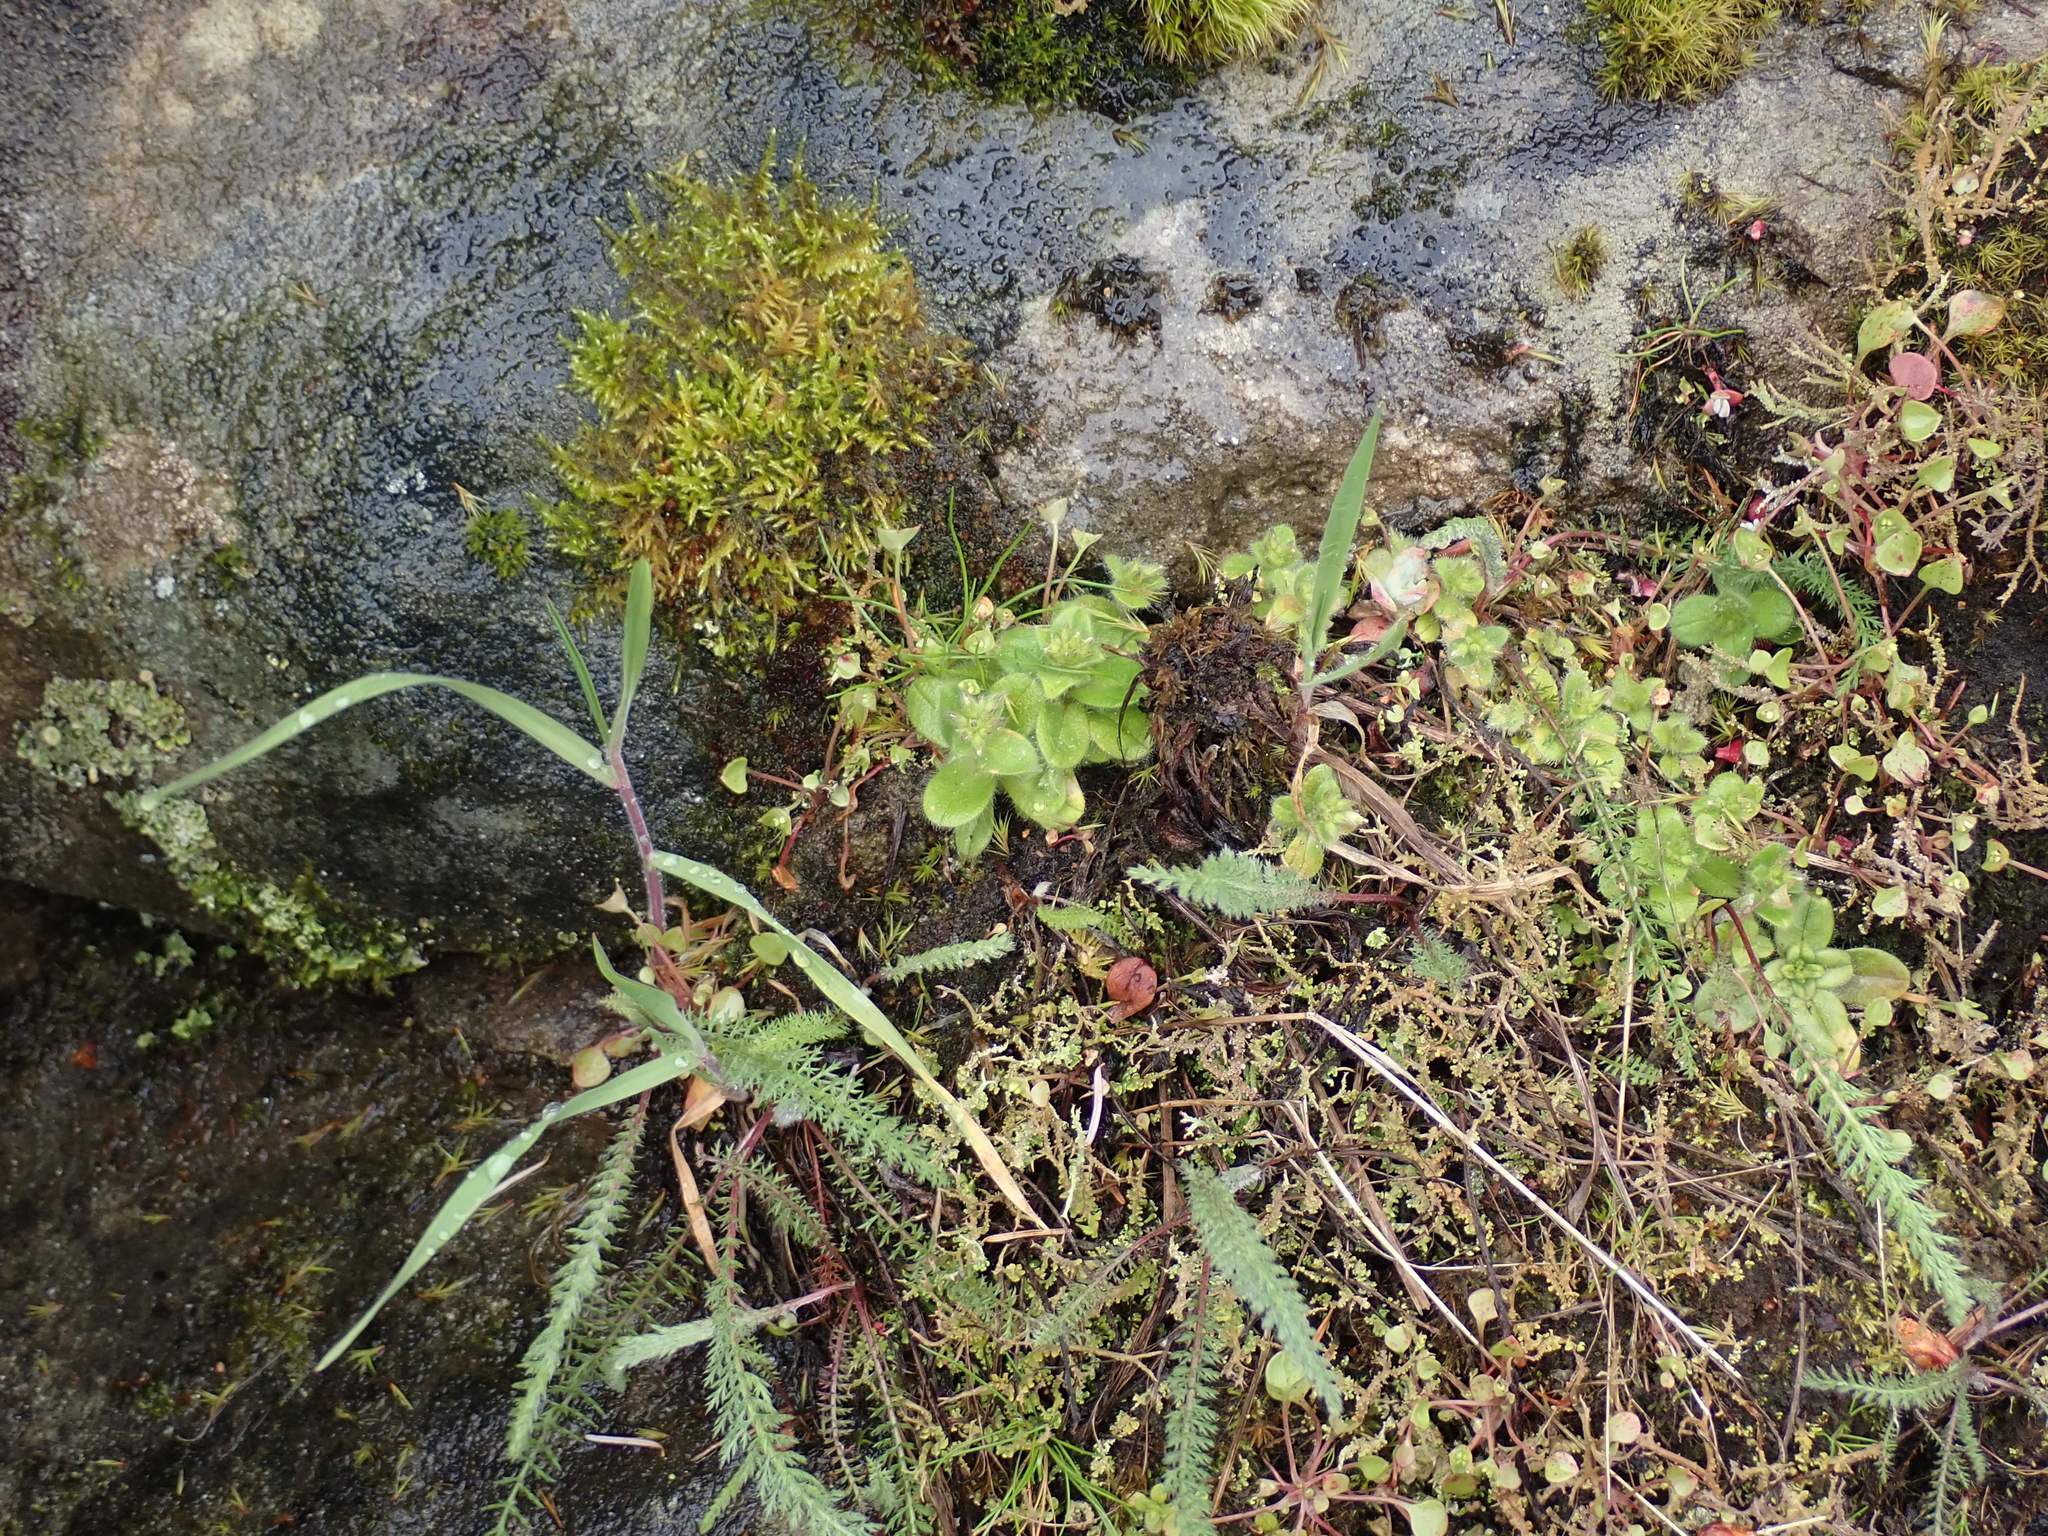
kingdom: Plantae
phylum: Tracheophyta
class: Magnoliopsida
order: Caryophyllales
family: Caryophyllaceae
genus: Cerastium
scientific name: Cerastium glomeratum
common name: Sticky chickweed
